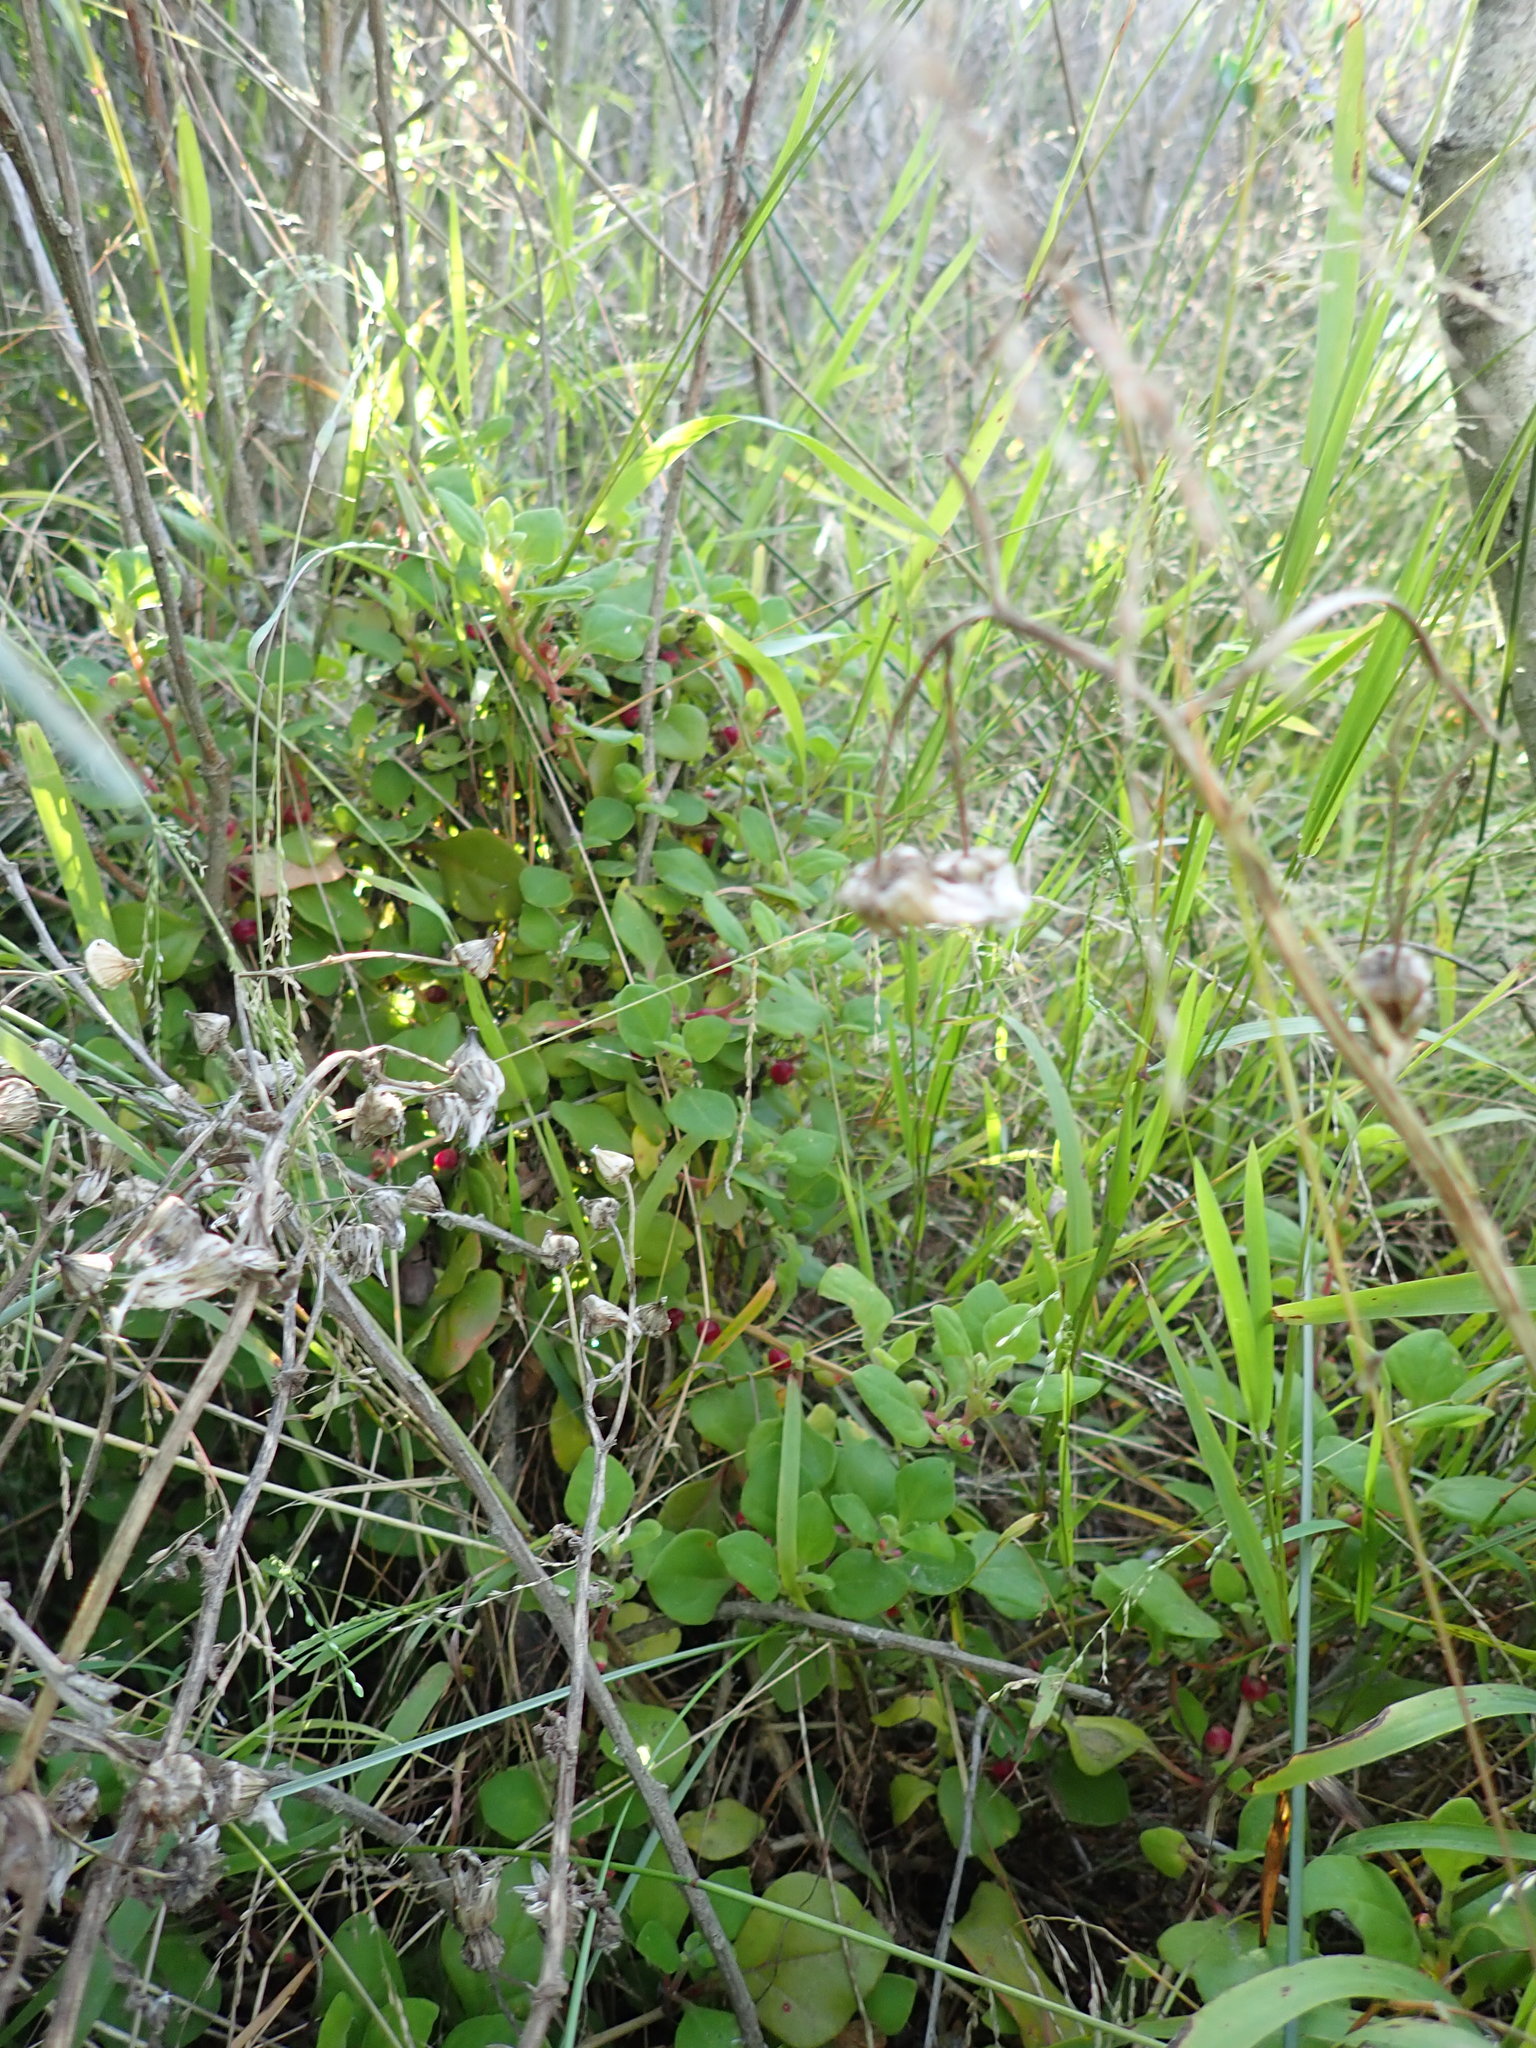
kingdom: Plantae
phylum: Tracheophyta
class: Magnoliopsida
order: Fabales
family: Fabaceae
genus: Acacia
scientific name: Acacia longifolia
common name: Sydney golden wattle
